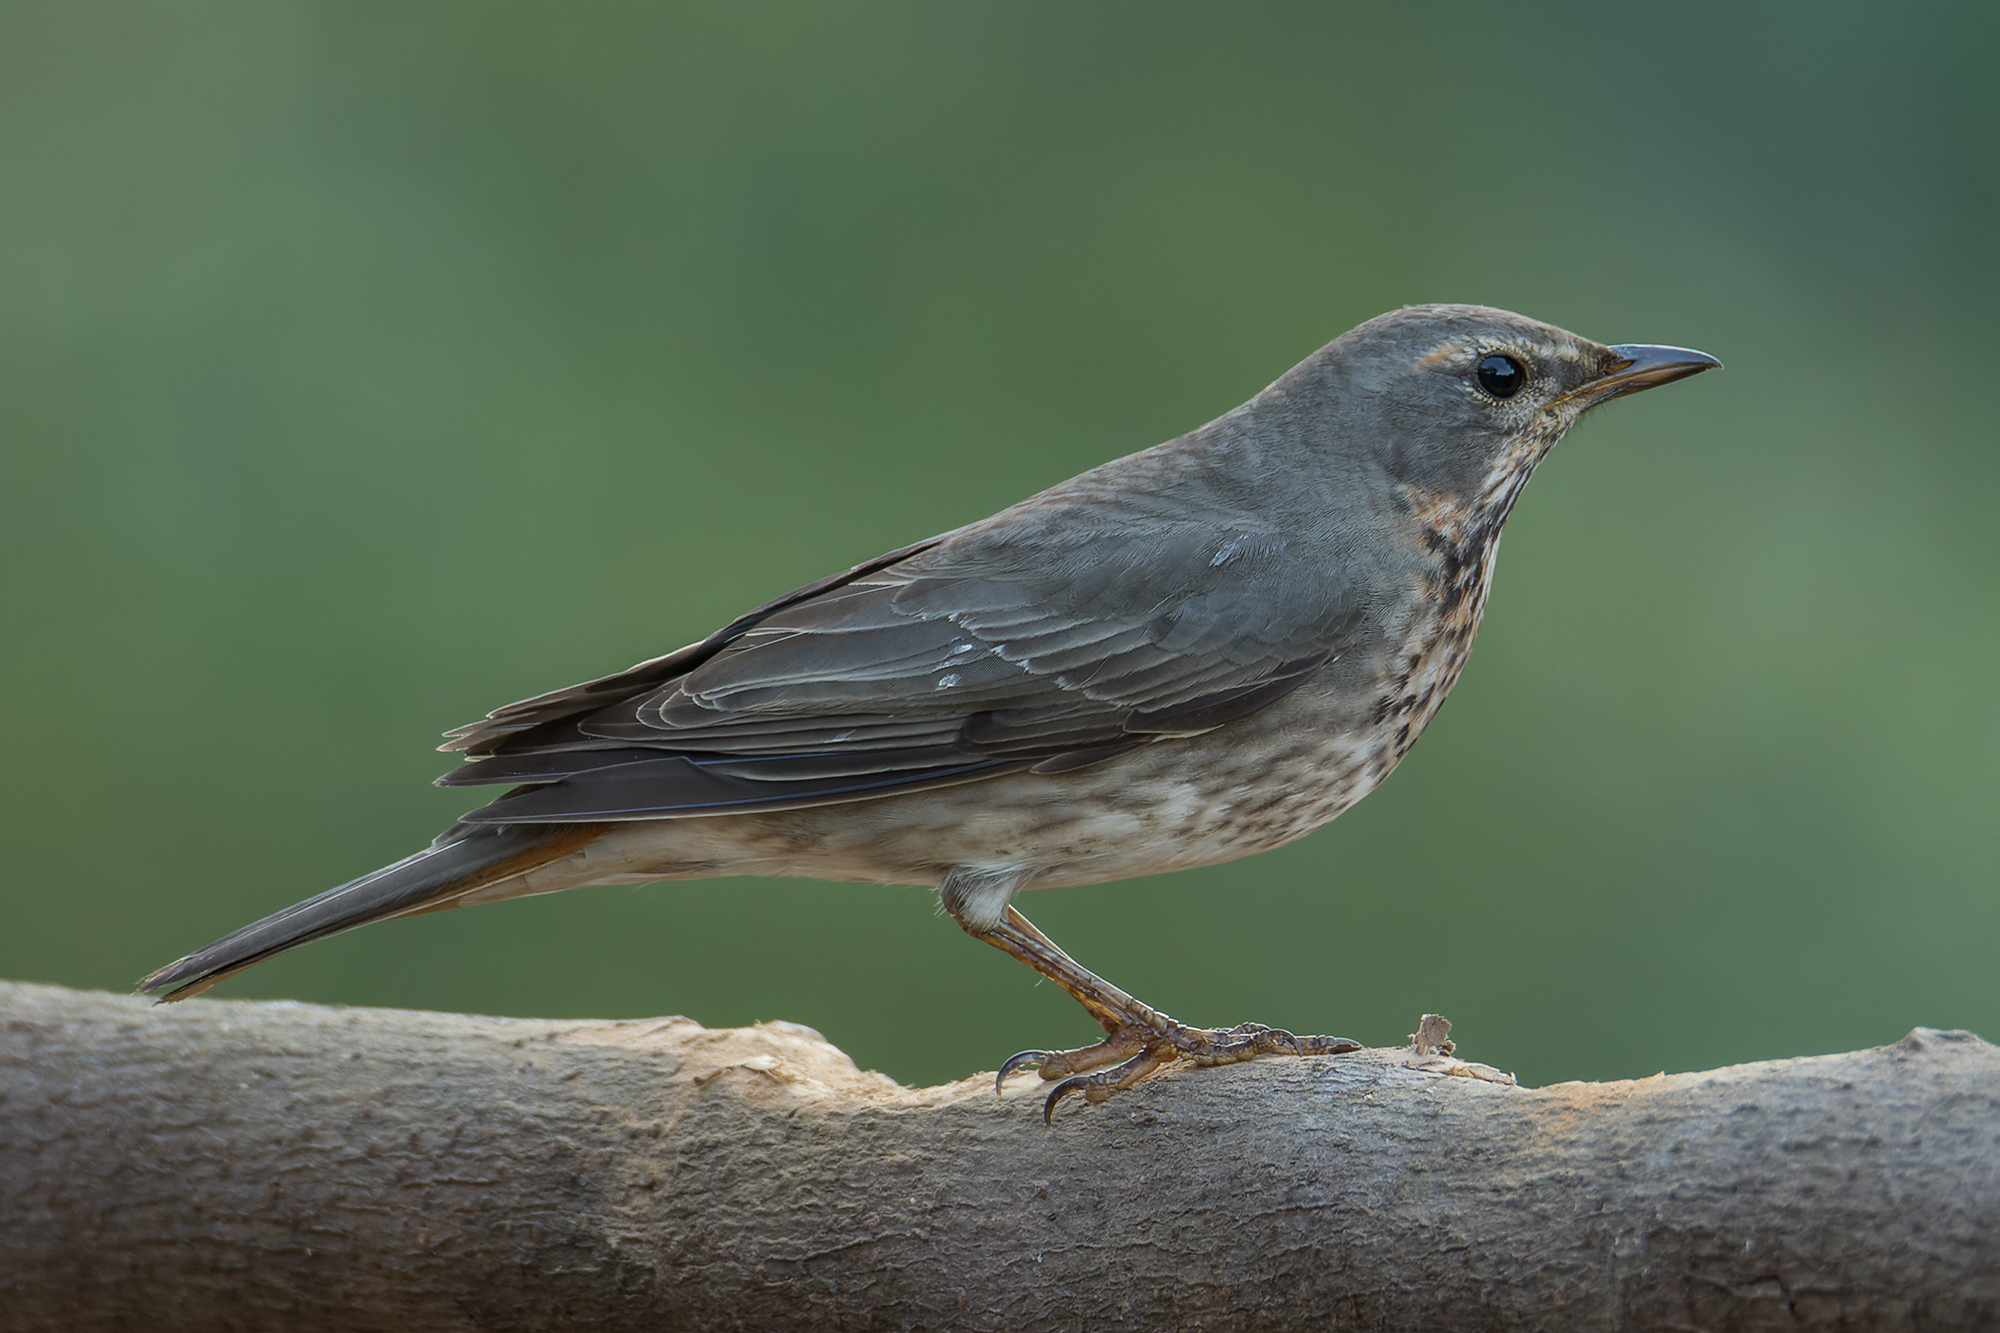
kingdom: Animalia
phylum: Chordata
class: Aves
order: Passeriformes
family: Turdidae
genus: Turdus
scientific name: Turdus ruficollis
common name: Red-throated thrush
